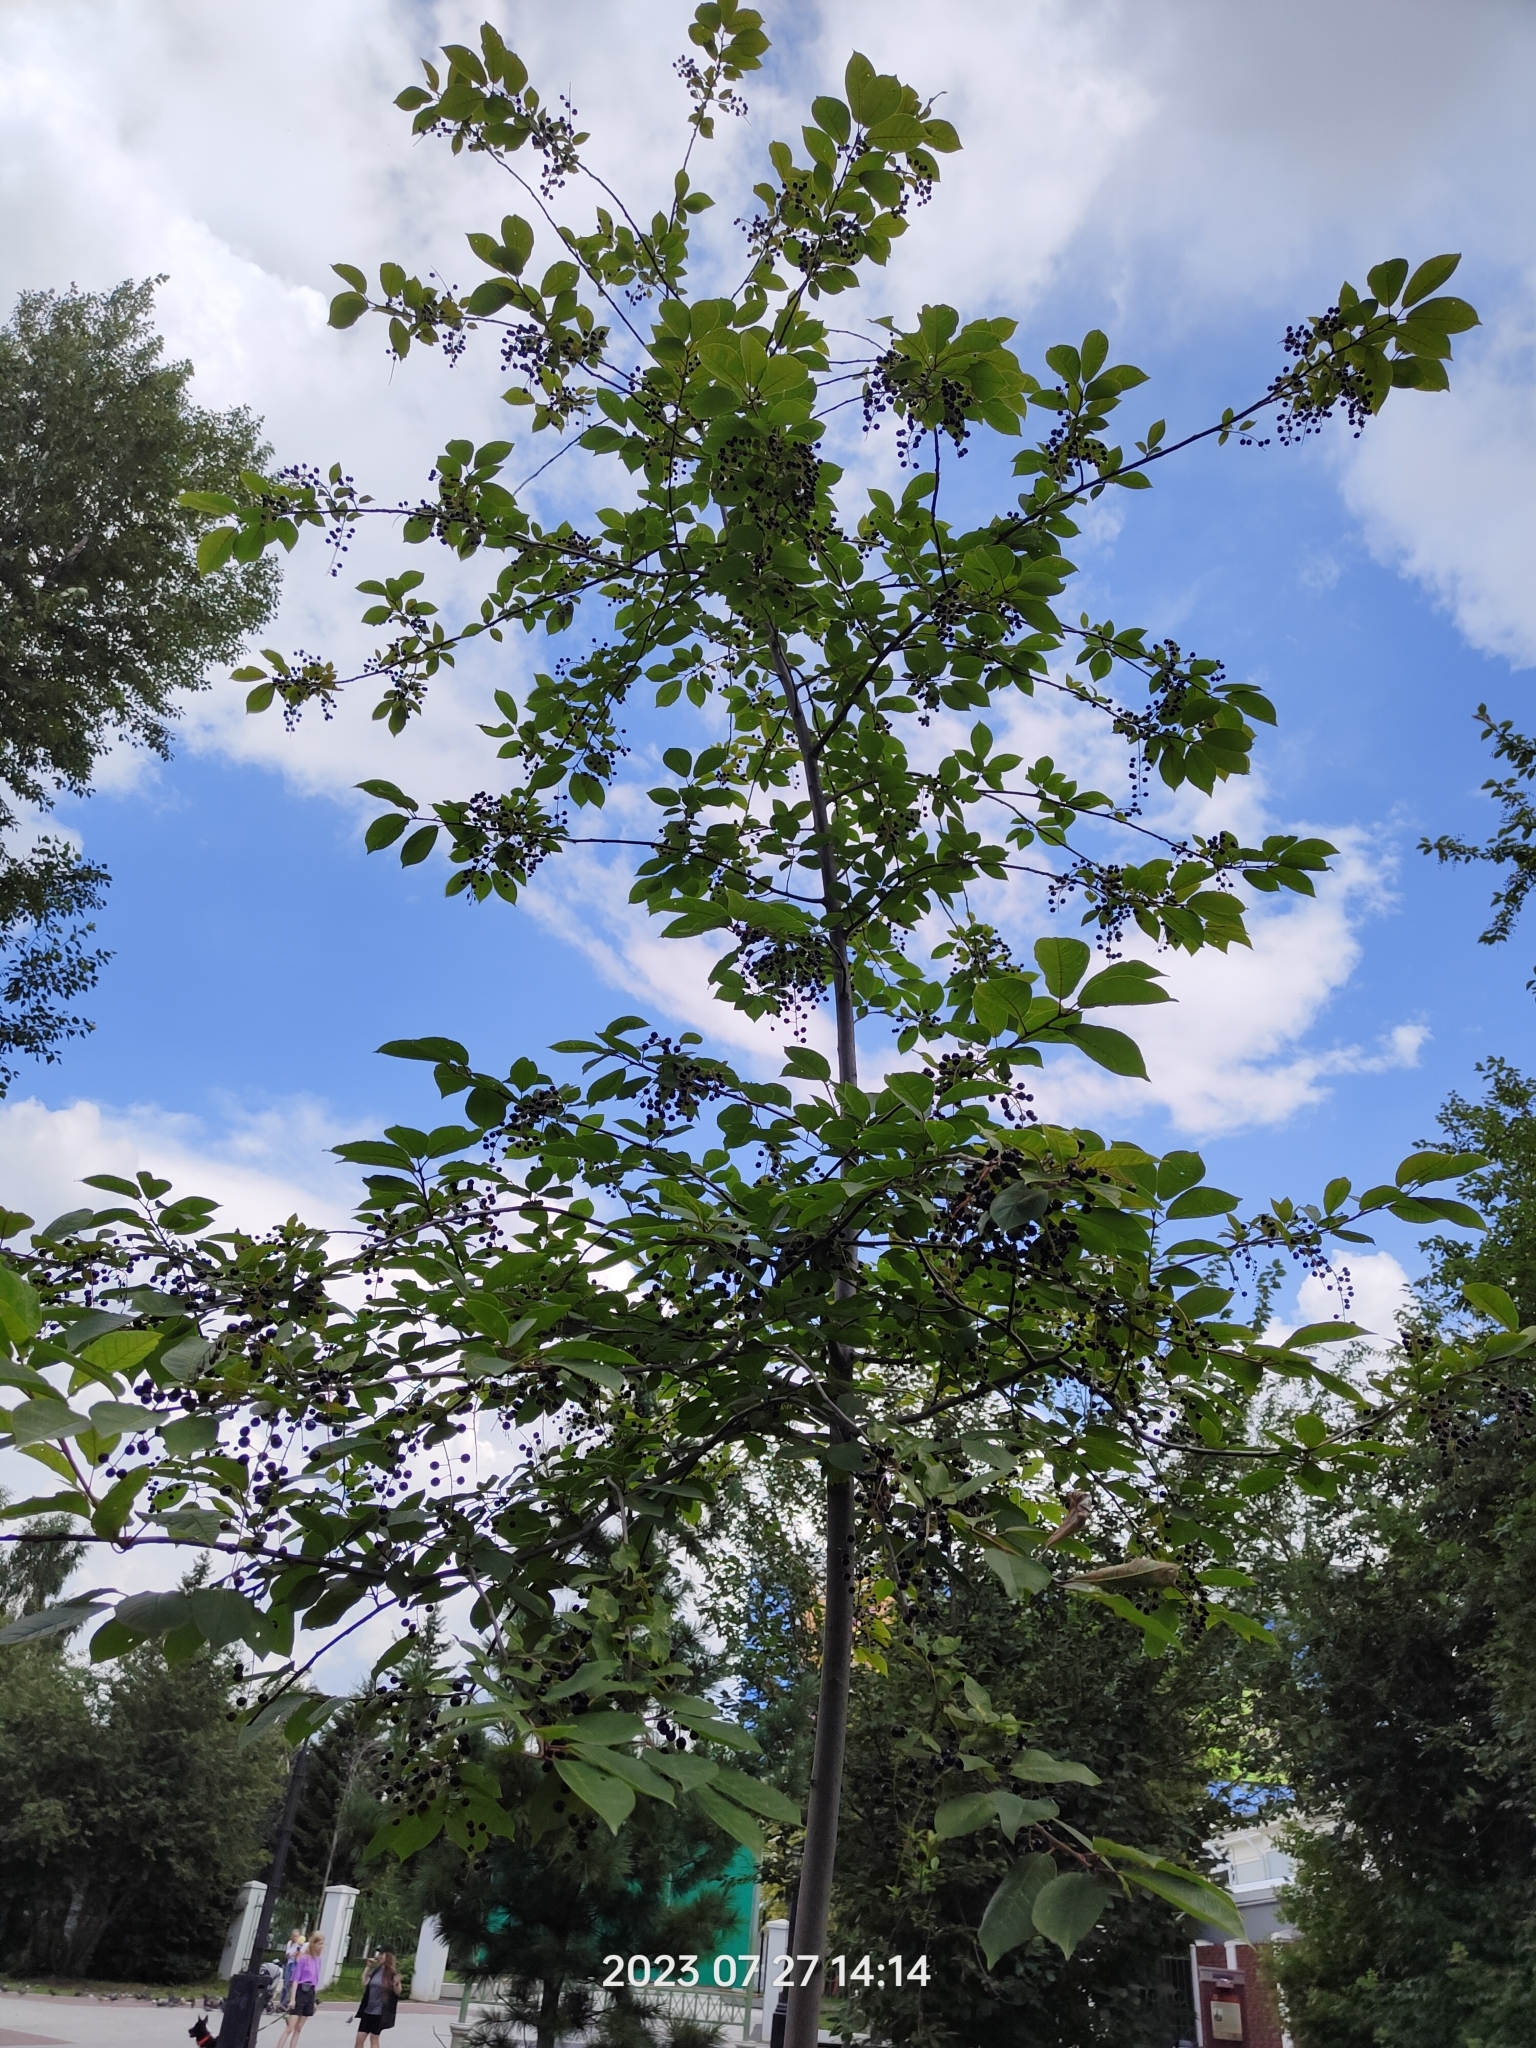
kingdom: Plantae
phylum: Tracheophyta
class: Magnoliopsida
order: Rosales
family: Rosaceae
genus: Prunus
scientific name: Prunus padus
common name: Bird cherry
